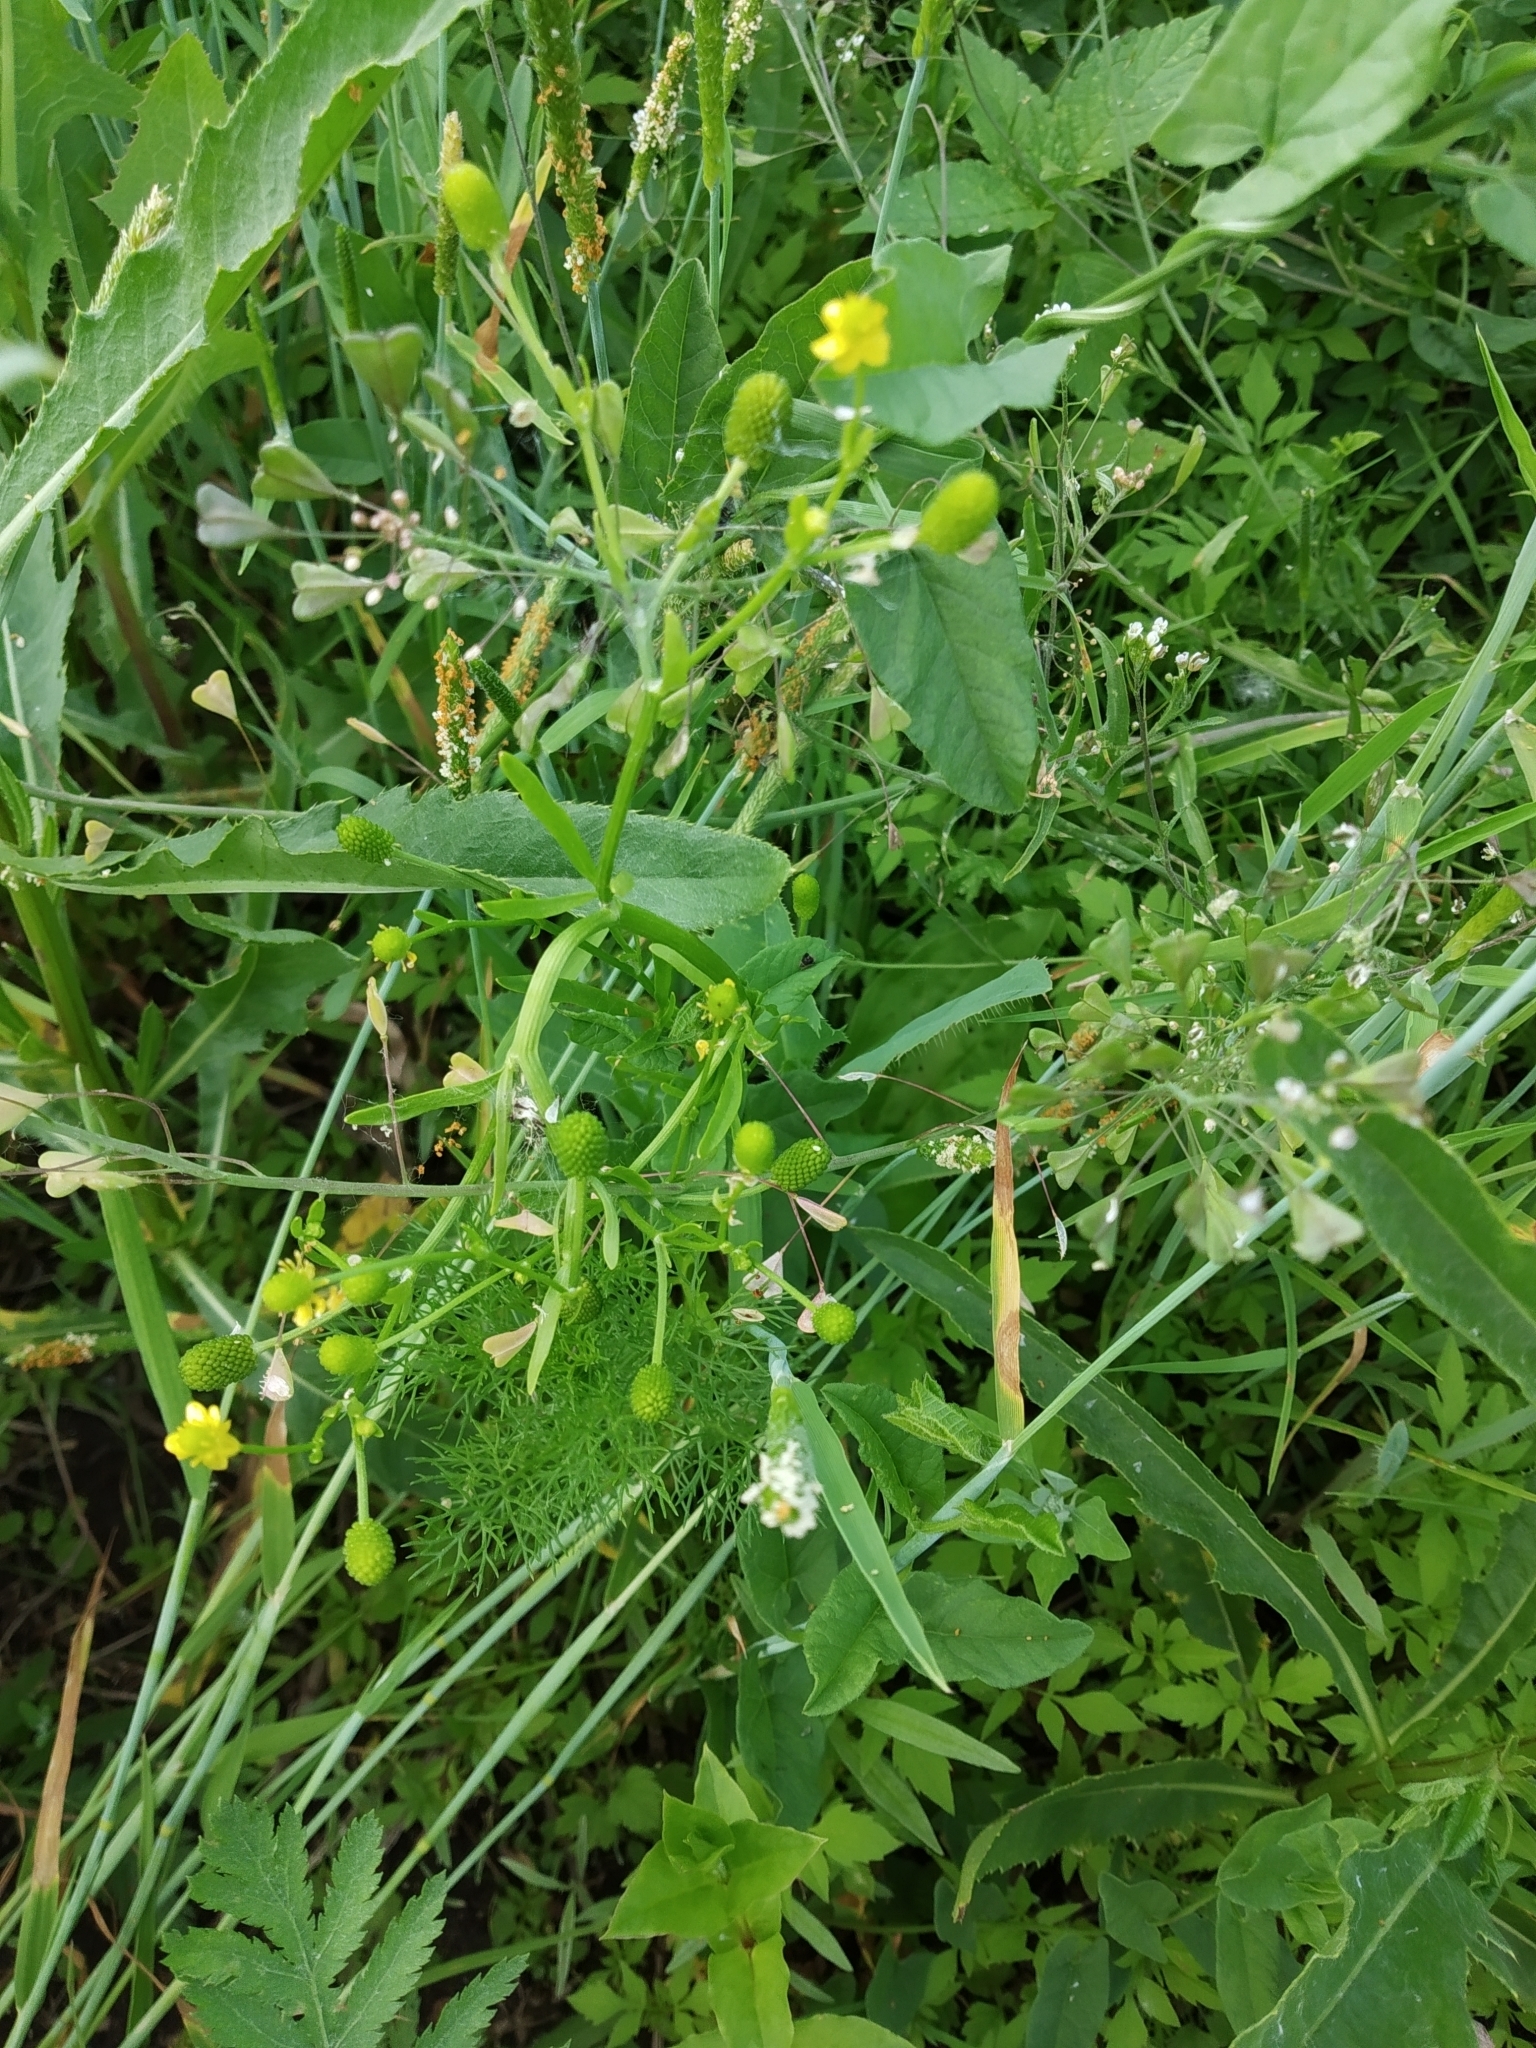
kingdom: Plantae
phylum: Tracheophyta
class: Magnoliopsida
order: Ranunculales
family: Ranunculaceae
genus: Ranunculus
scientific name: Ranunculus sceleratus
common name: Celery-leaved buttercup
